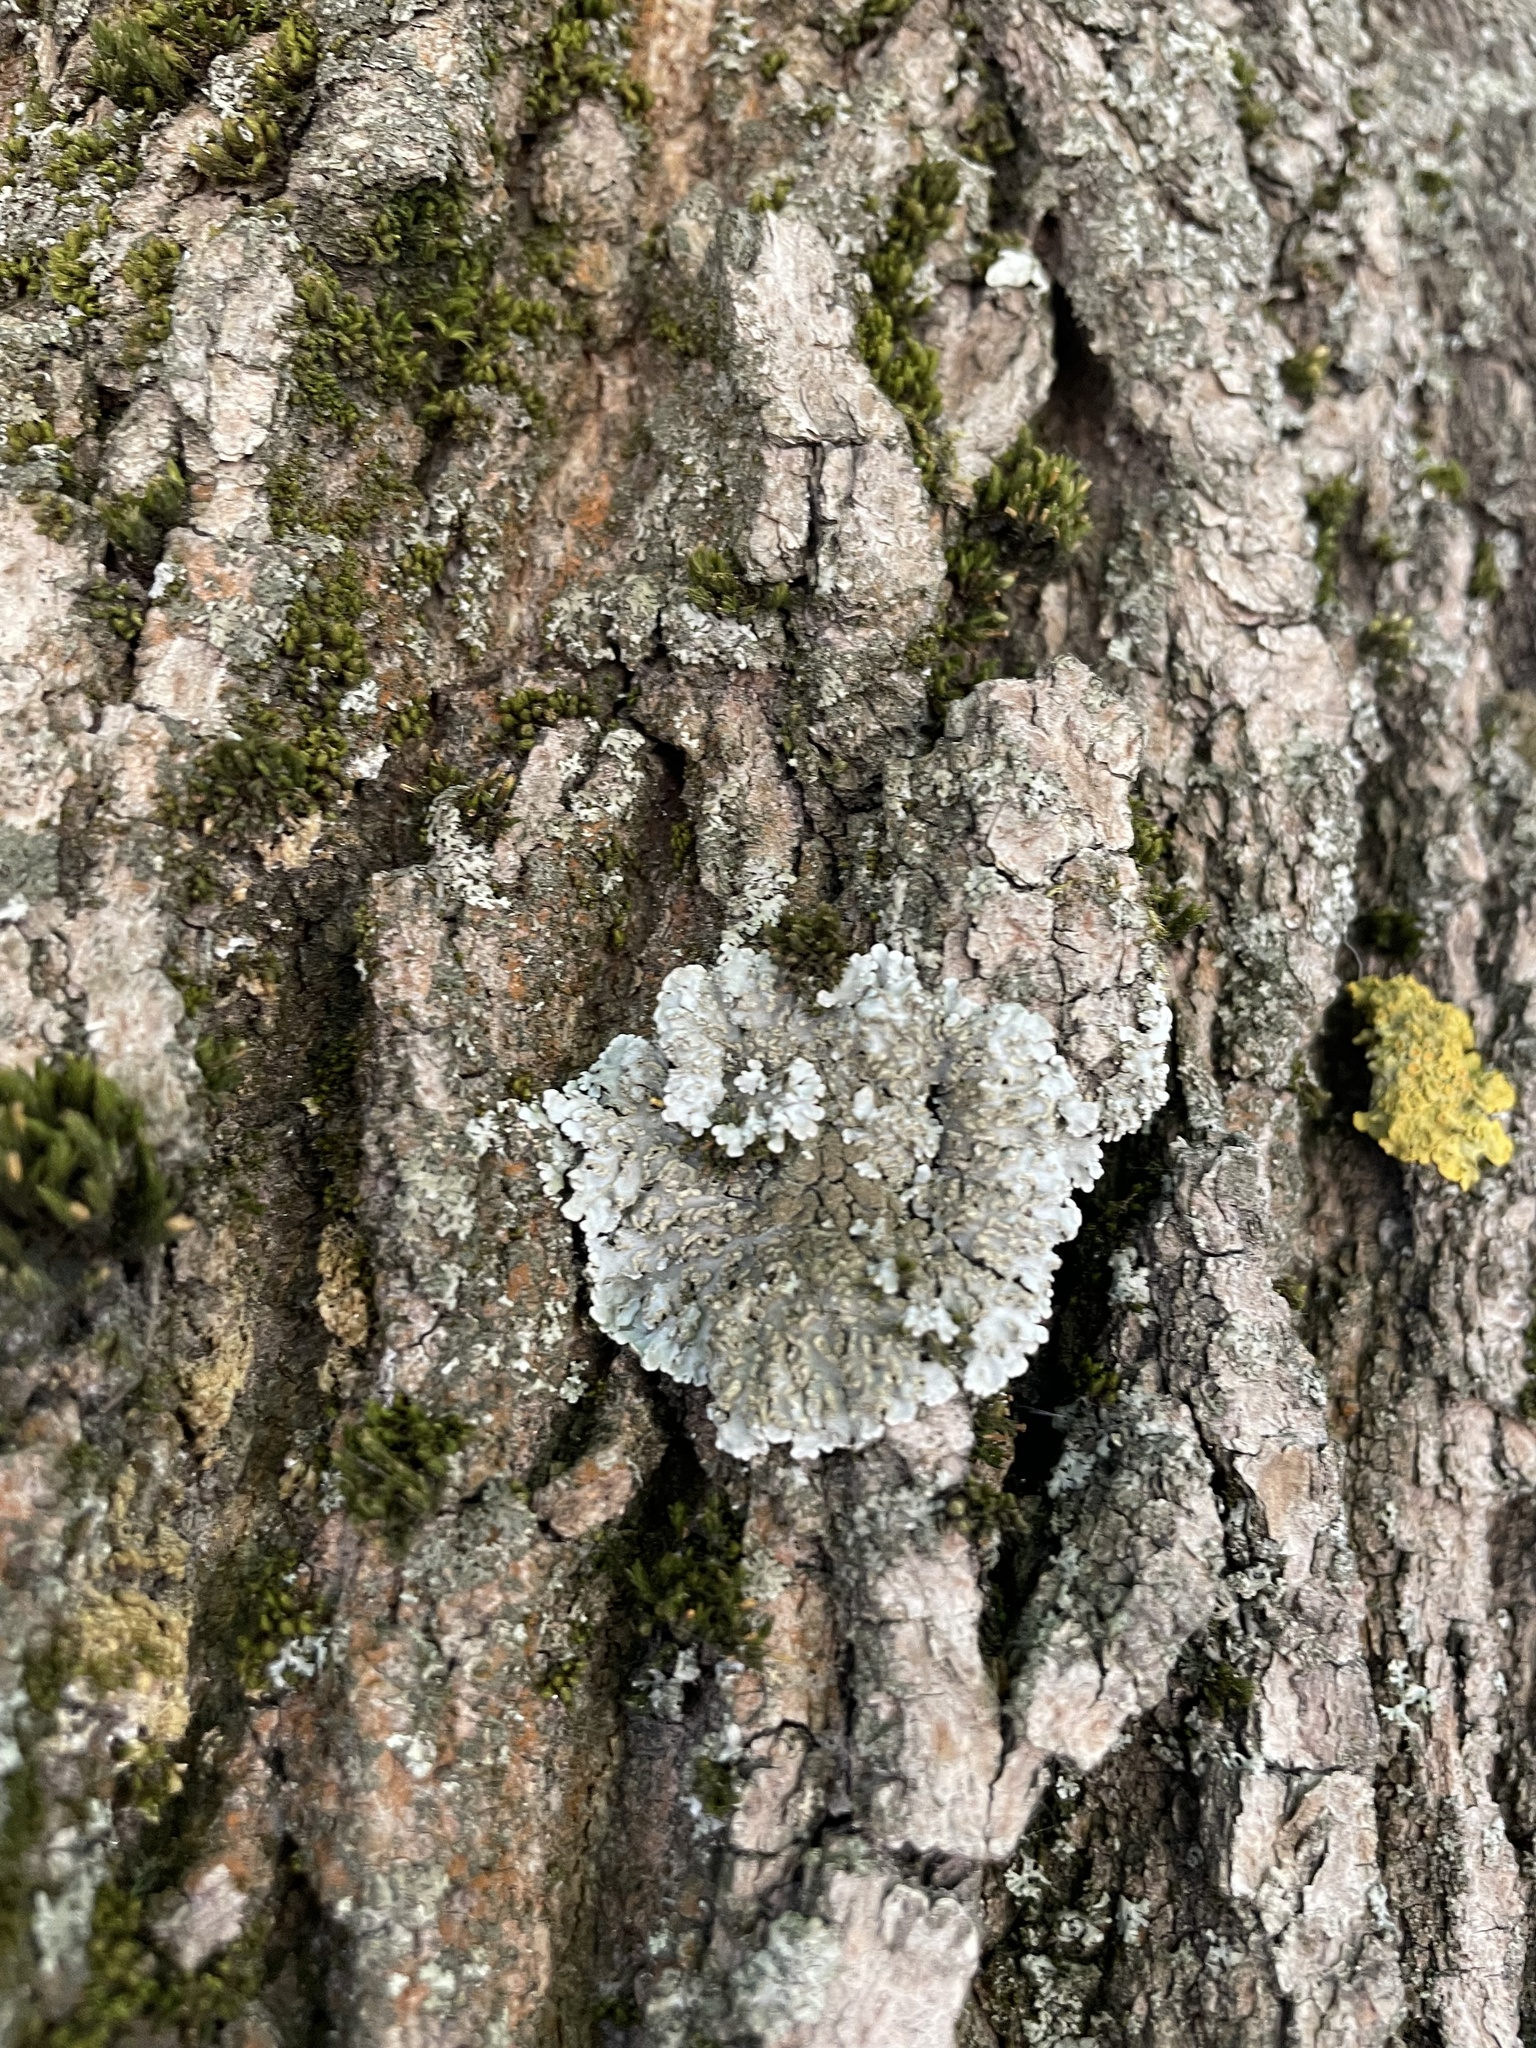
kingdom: Fungi
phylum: Ascomycota
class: Lecanoromycetes
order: Caliciales
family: Physciaceae
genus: Physconia
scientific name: Physconia enteroxantha
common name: Yellow-edged frost lichen
